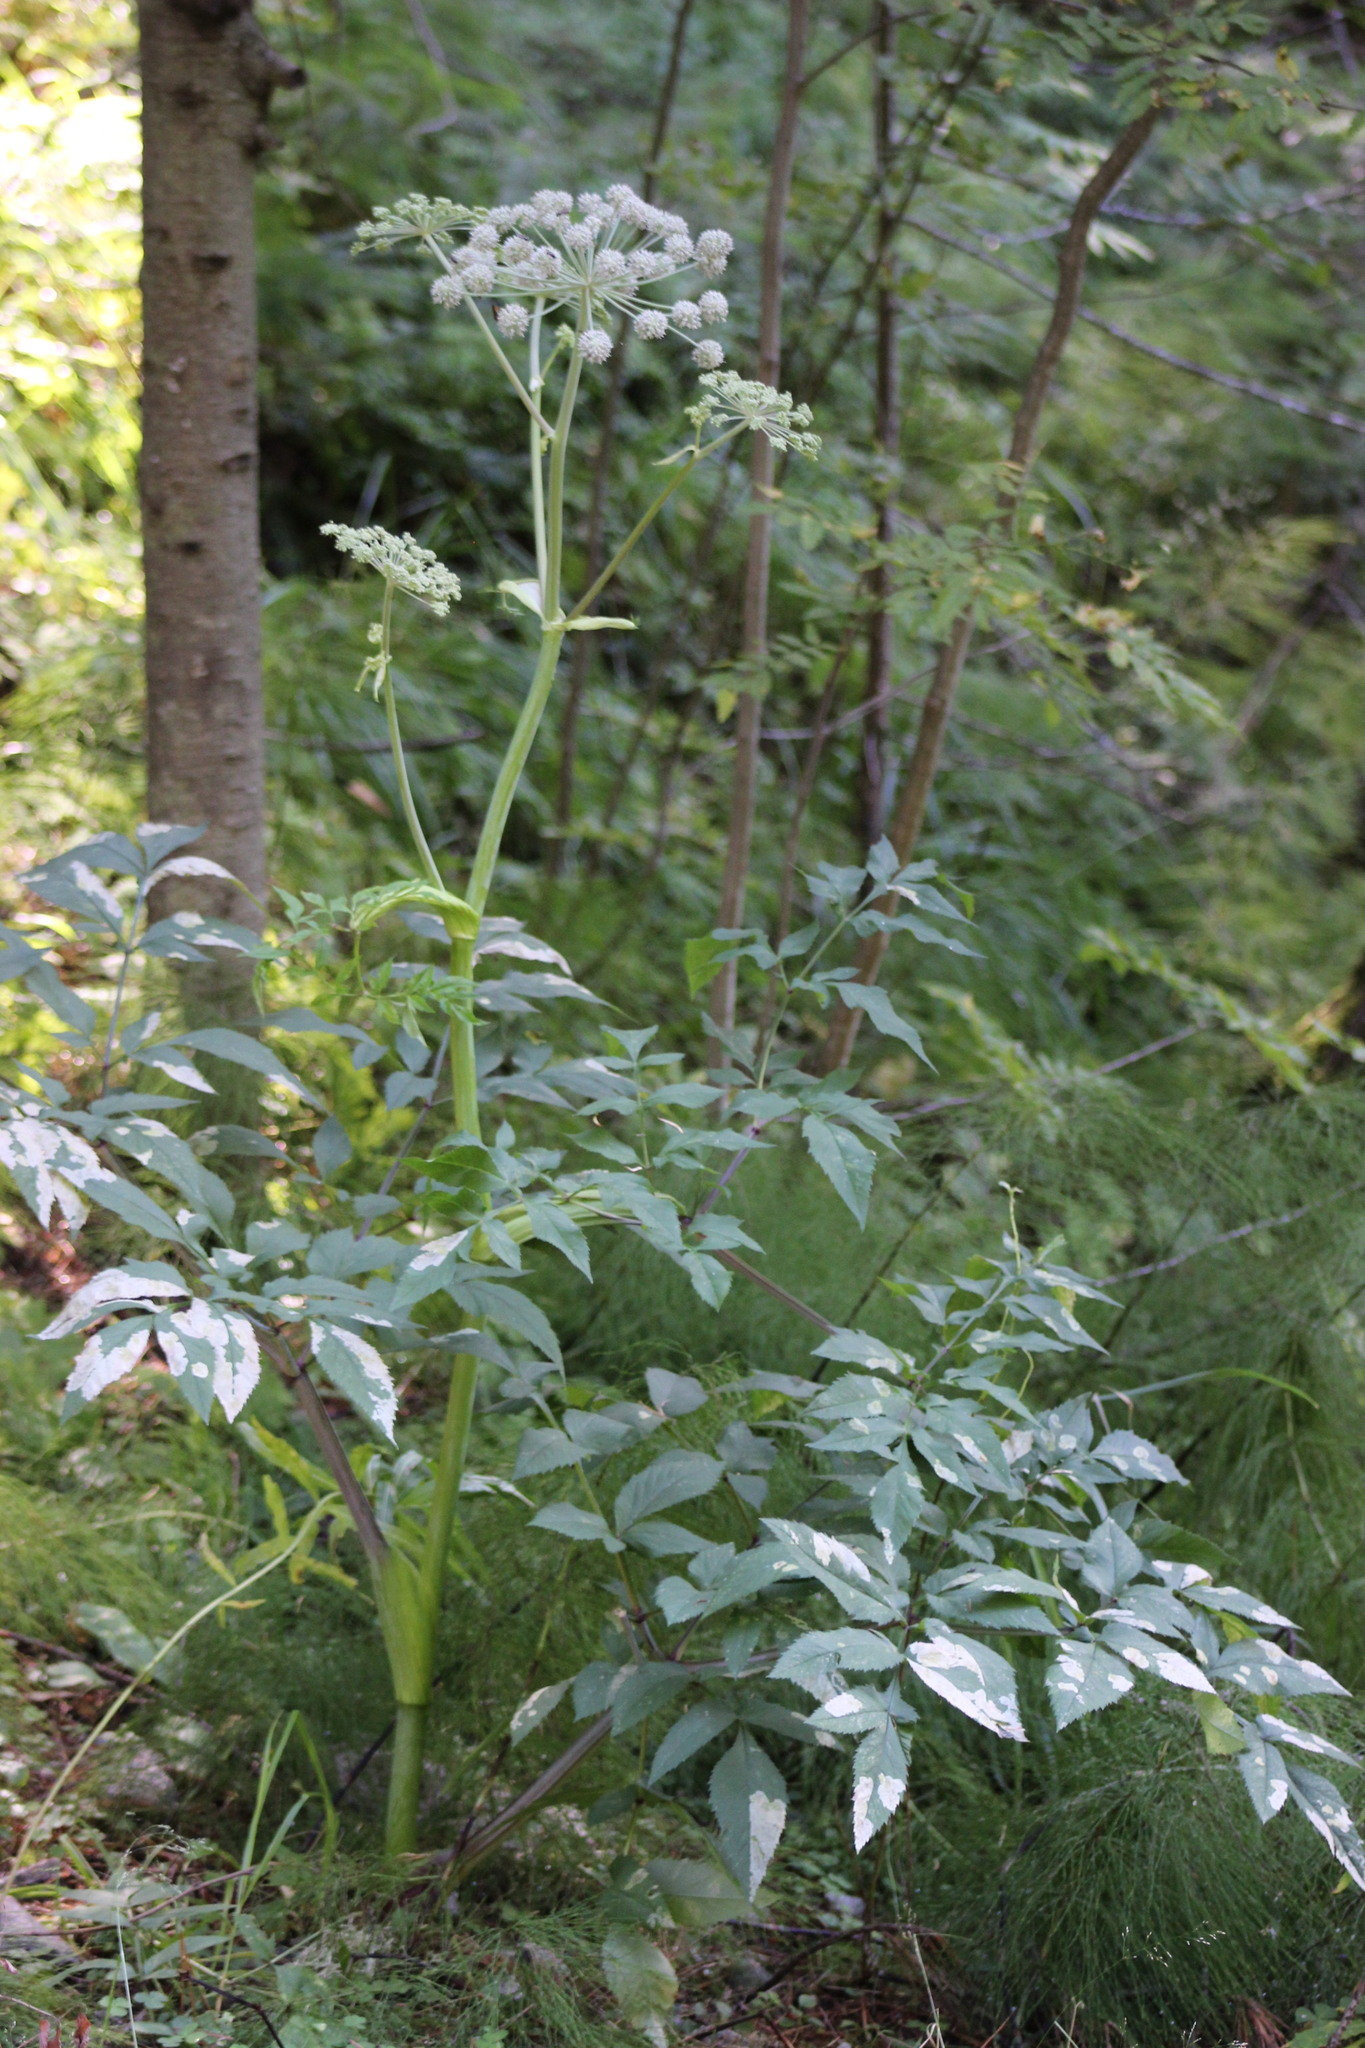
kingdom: Plantae
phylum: Tracheophyta
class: Magnoliopsida
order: Apiales
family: Apiaceae
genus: Angelica
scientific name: Angelica sylvestris
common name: Wild angelica
